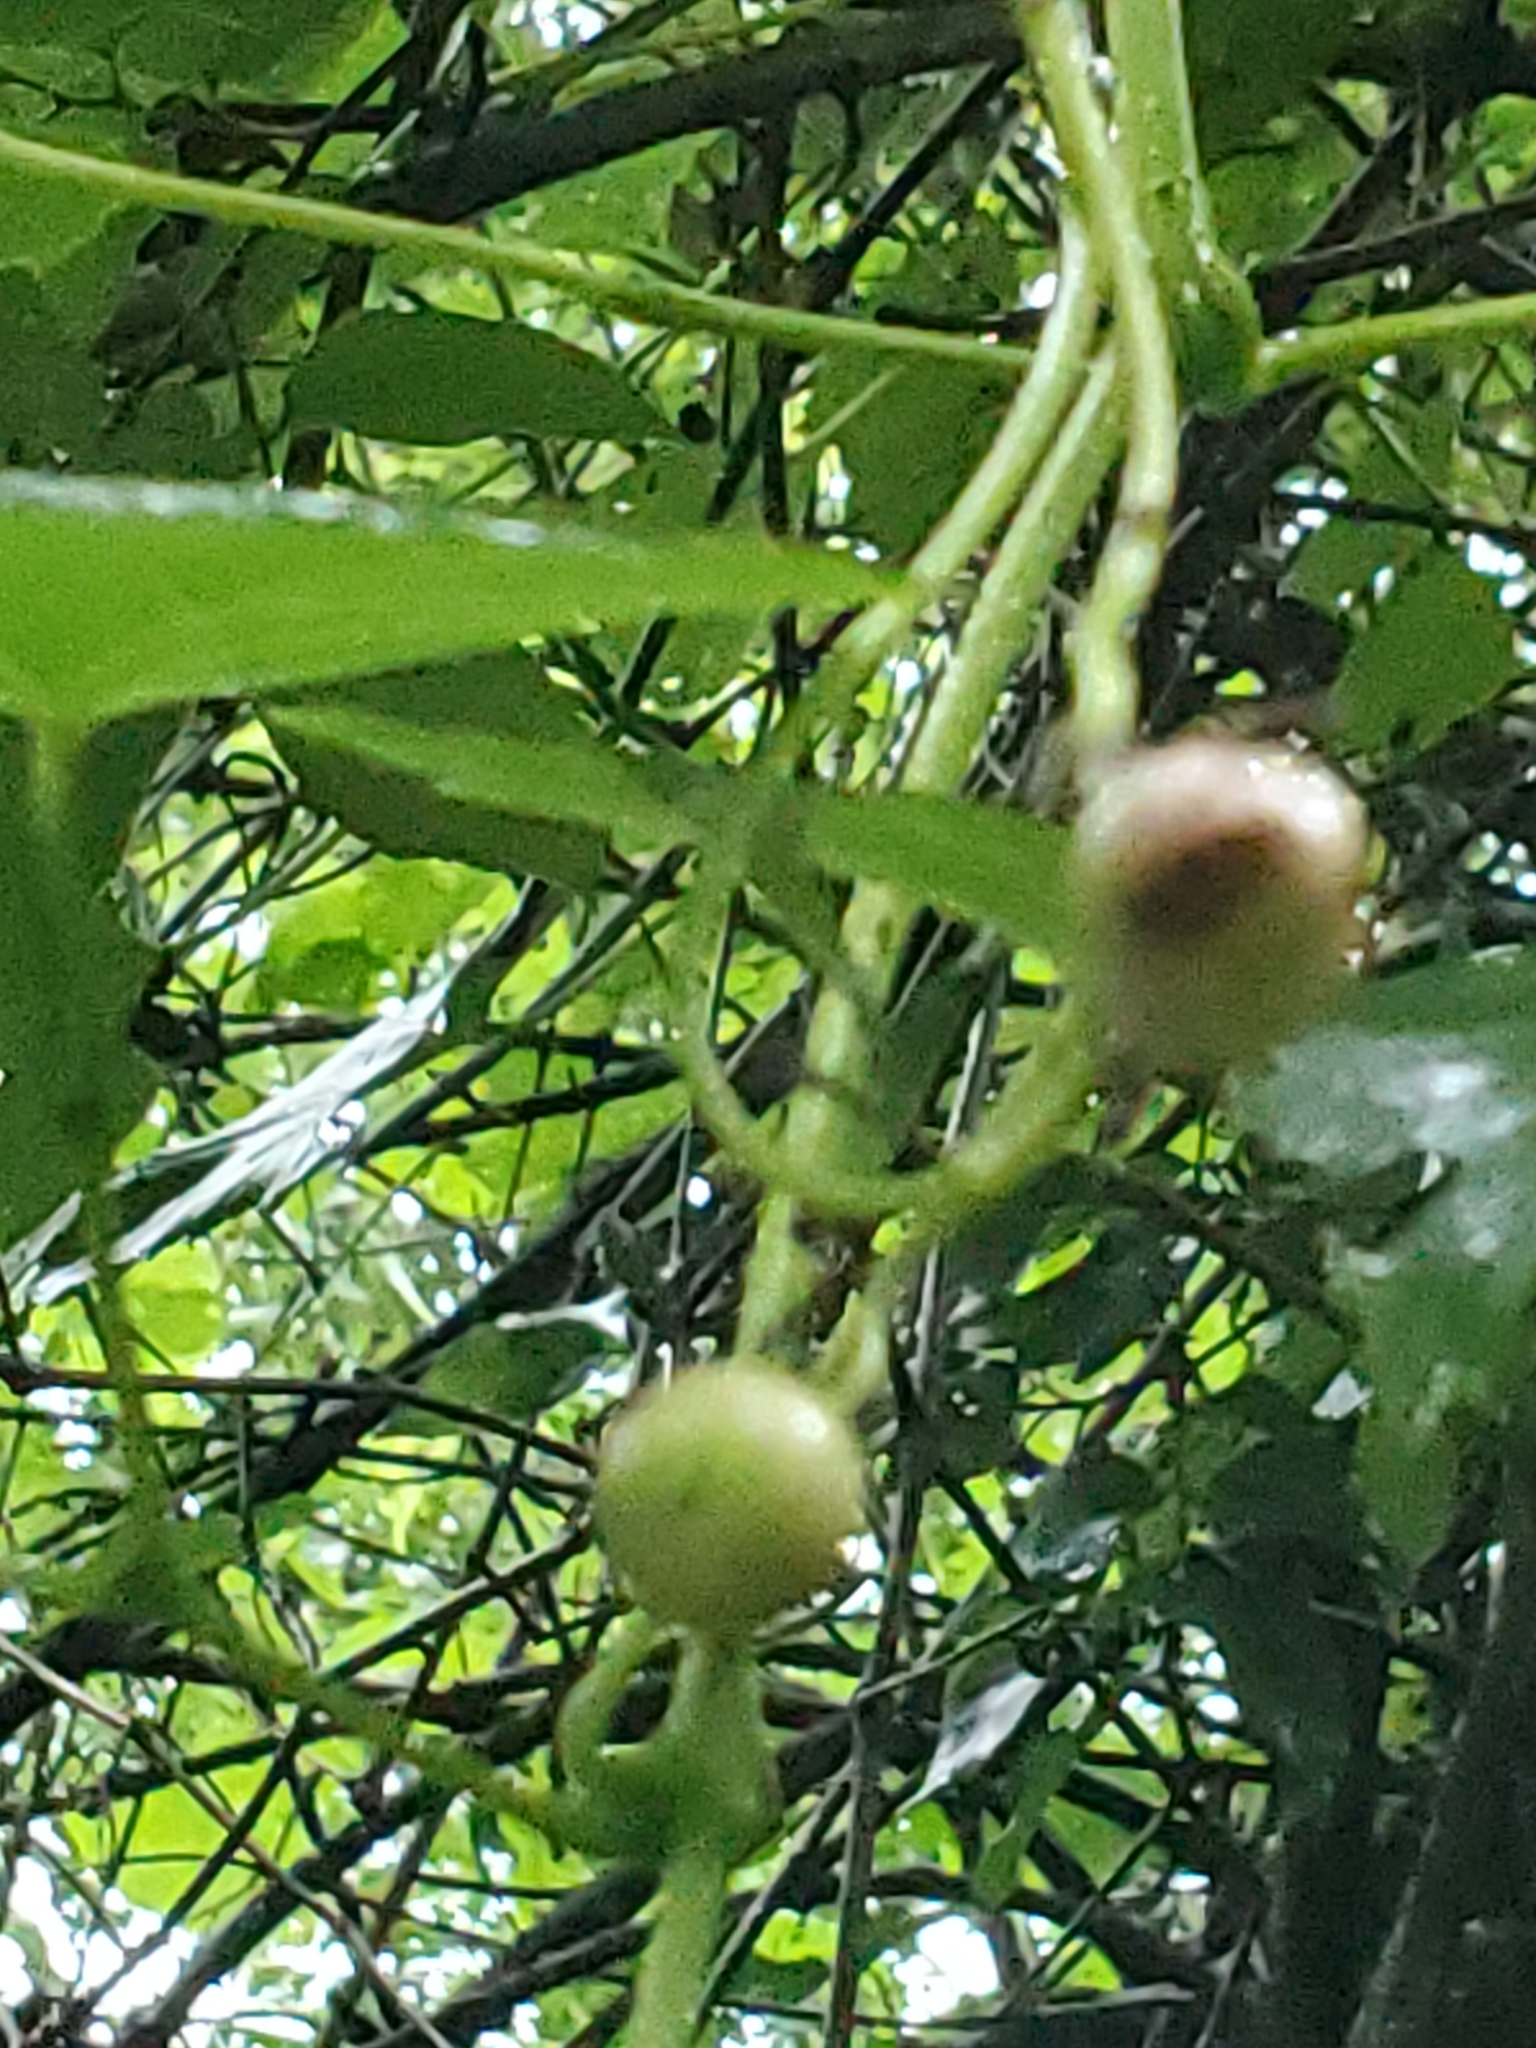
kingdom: Plantae
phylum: Tracheophyta
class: Magnoliopsida
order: Vitales
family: Vitaceae
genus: Ampelopsis
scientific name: Ampelopsis cordata
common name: Heart-leaf ampelopsis
